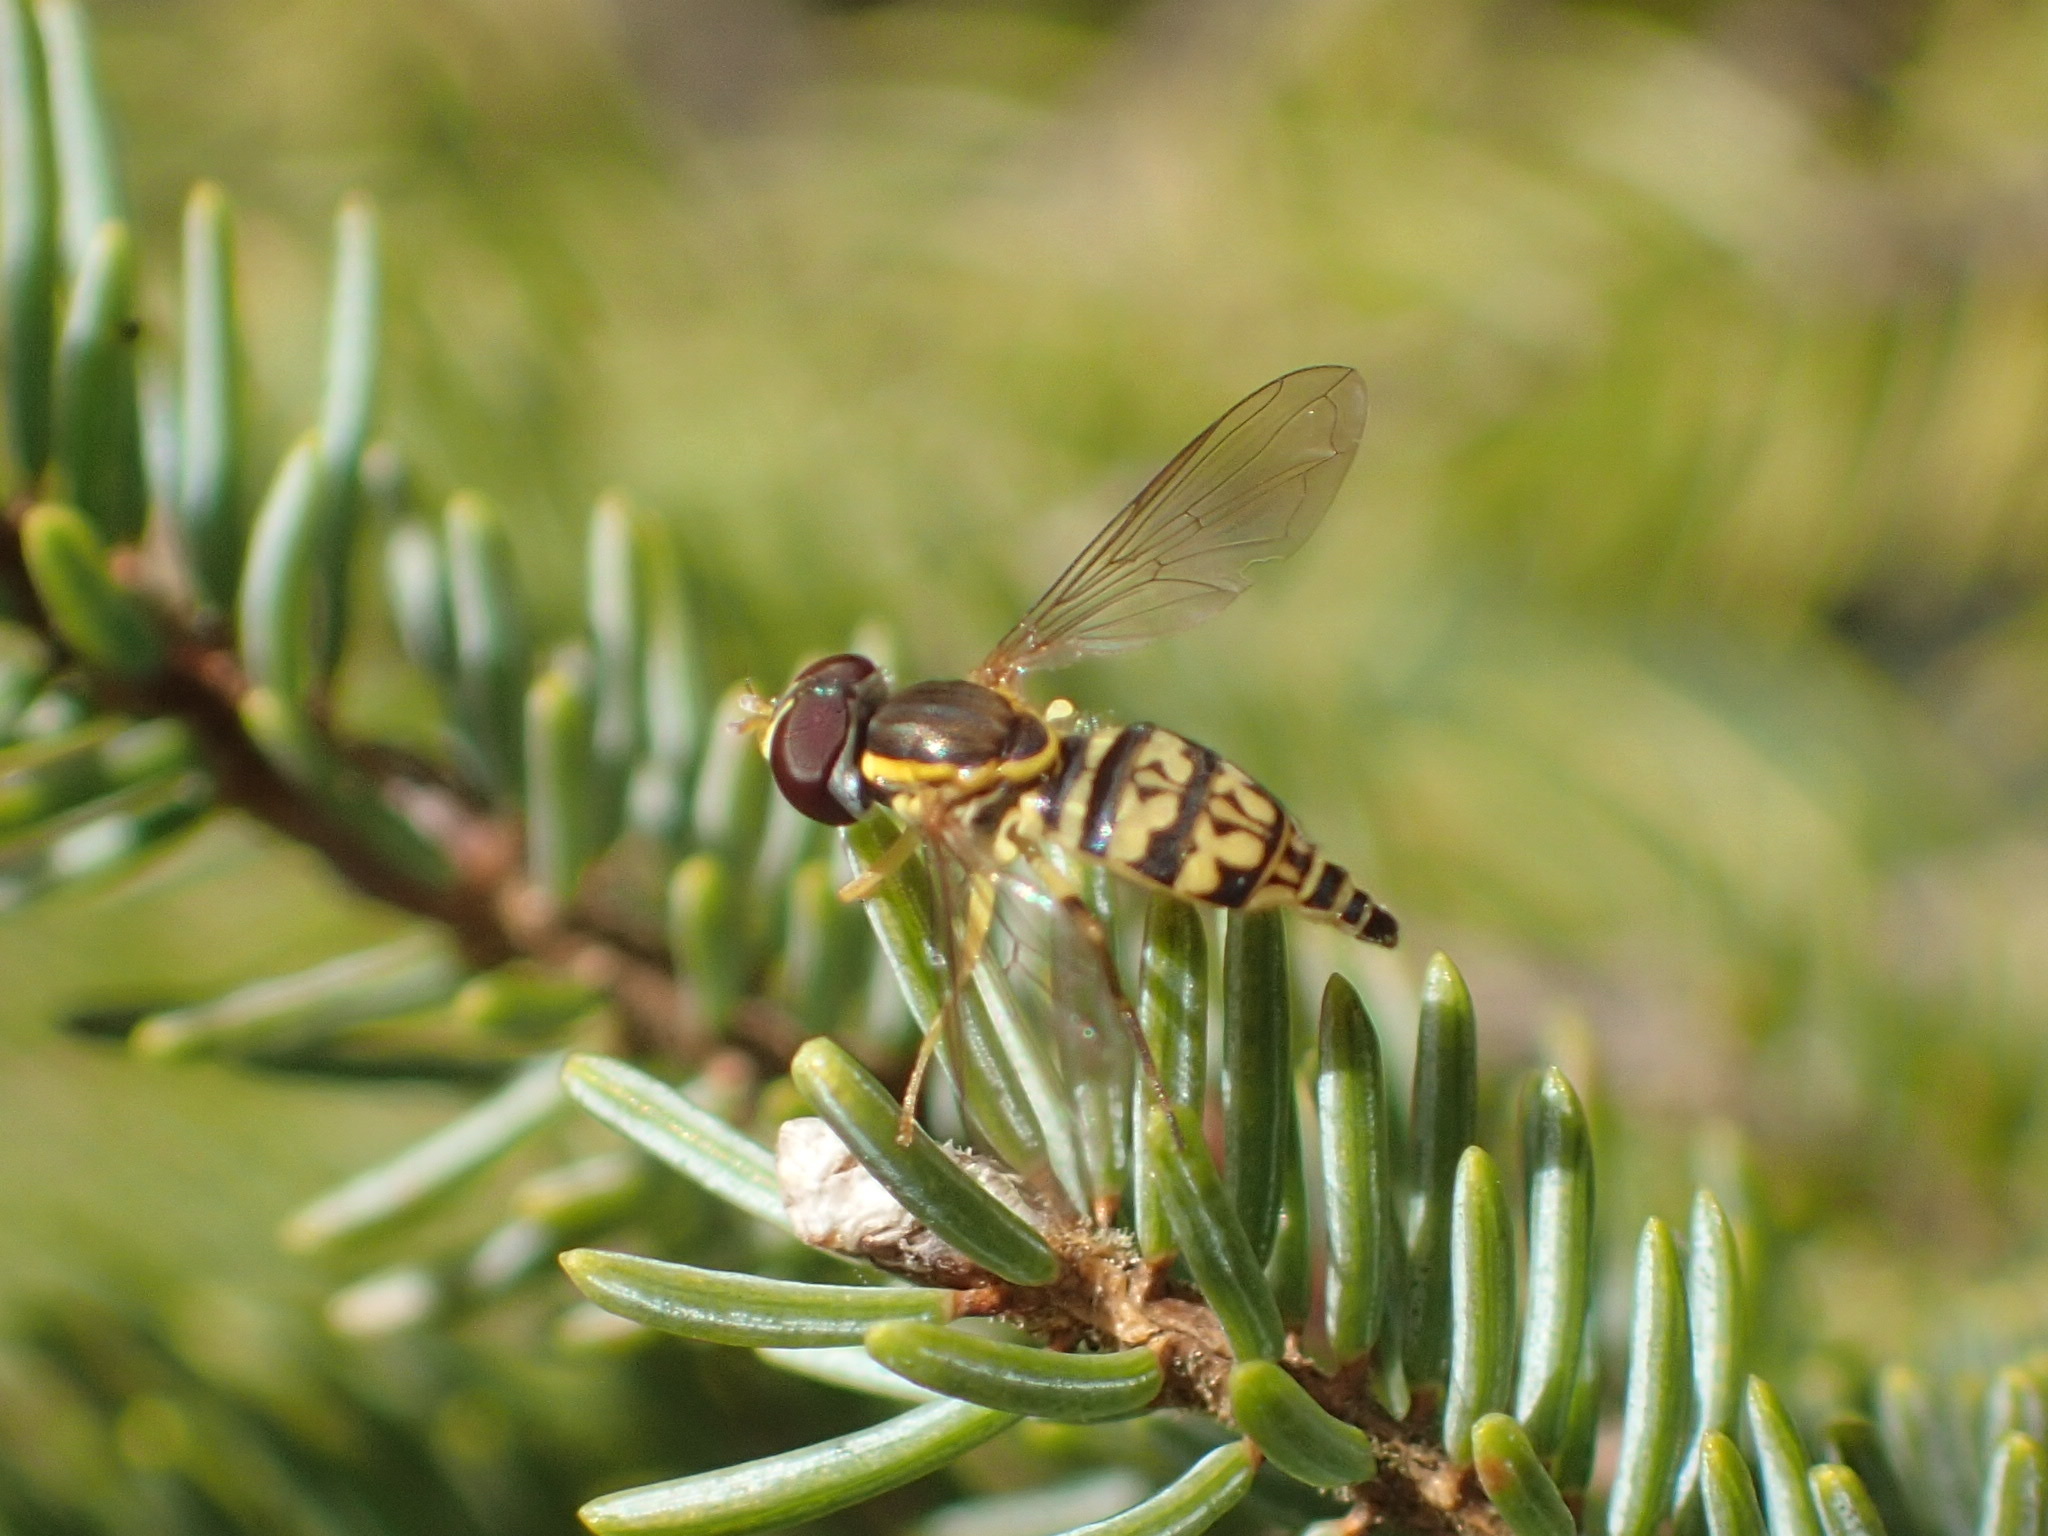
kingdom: Animalia
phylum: Arthropoda
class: Insecta
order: Diptera
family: Syrphidae
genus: Toxomerus
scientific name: Toxomerus geminatus
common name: Eastern calligrapher
